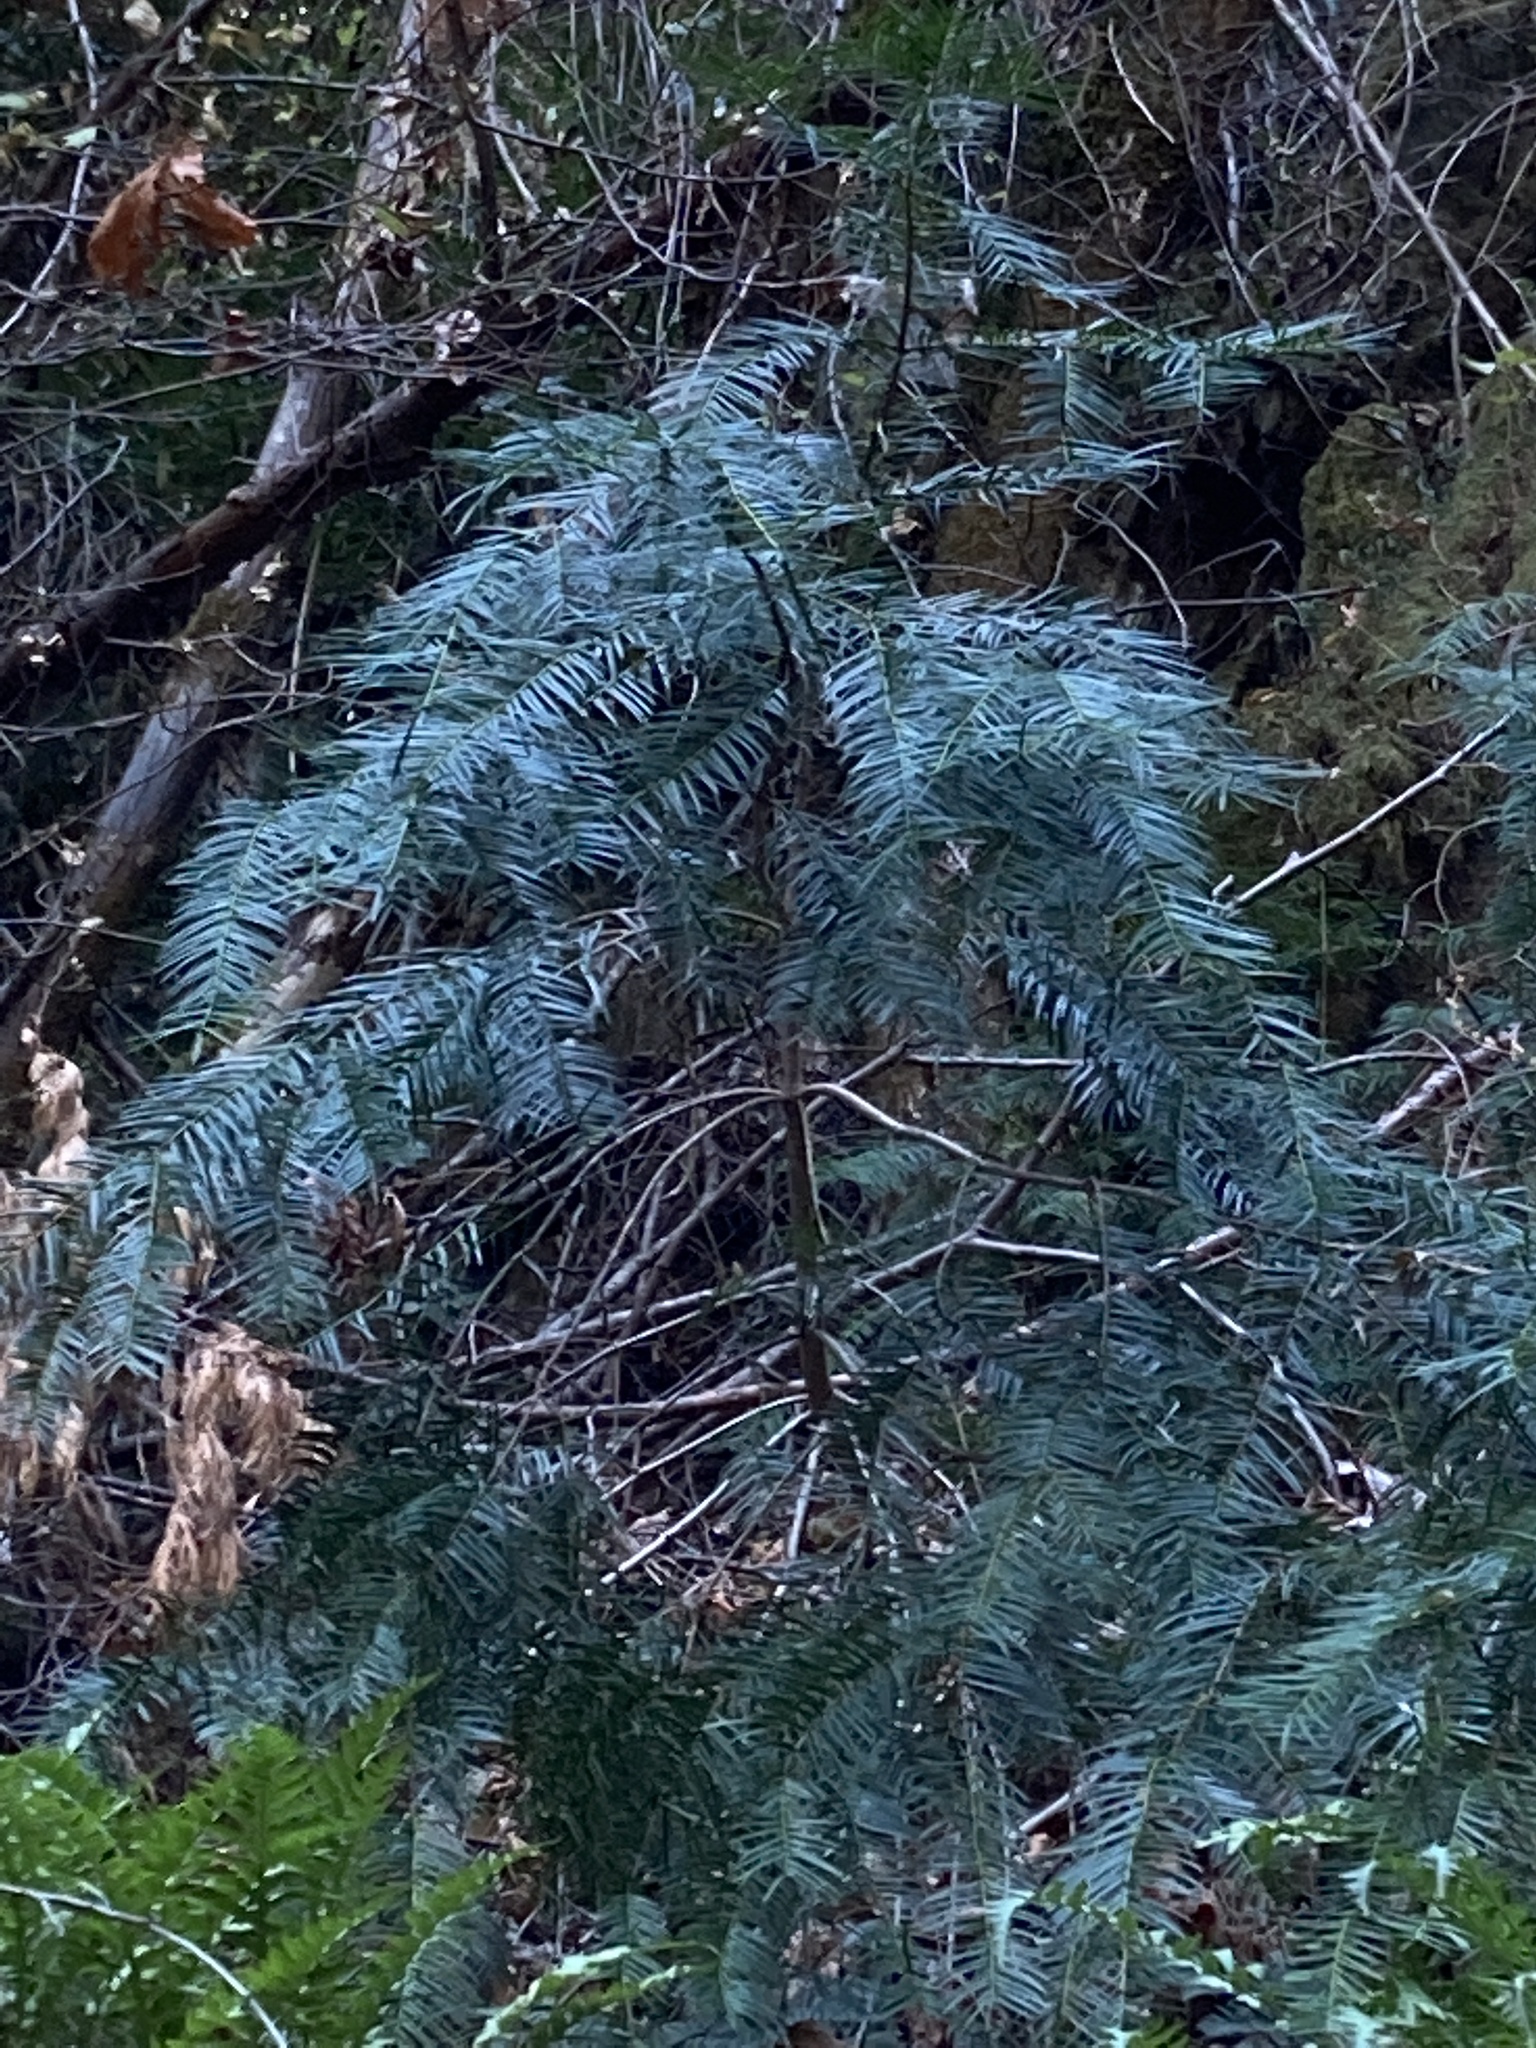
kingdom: Plantae
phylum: Tracheophyta
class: Pinopsida
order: Pinales
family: Taxaceae
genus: Torreya
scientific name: Torreya californica
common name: California torreya
